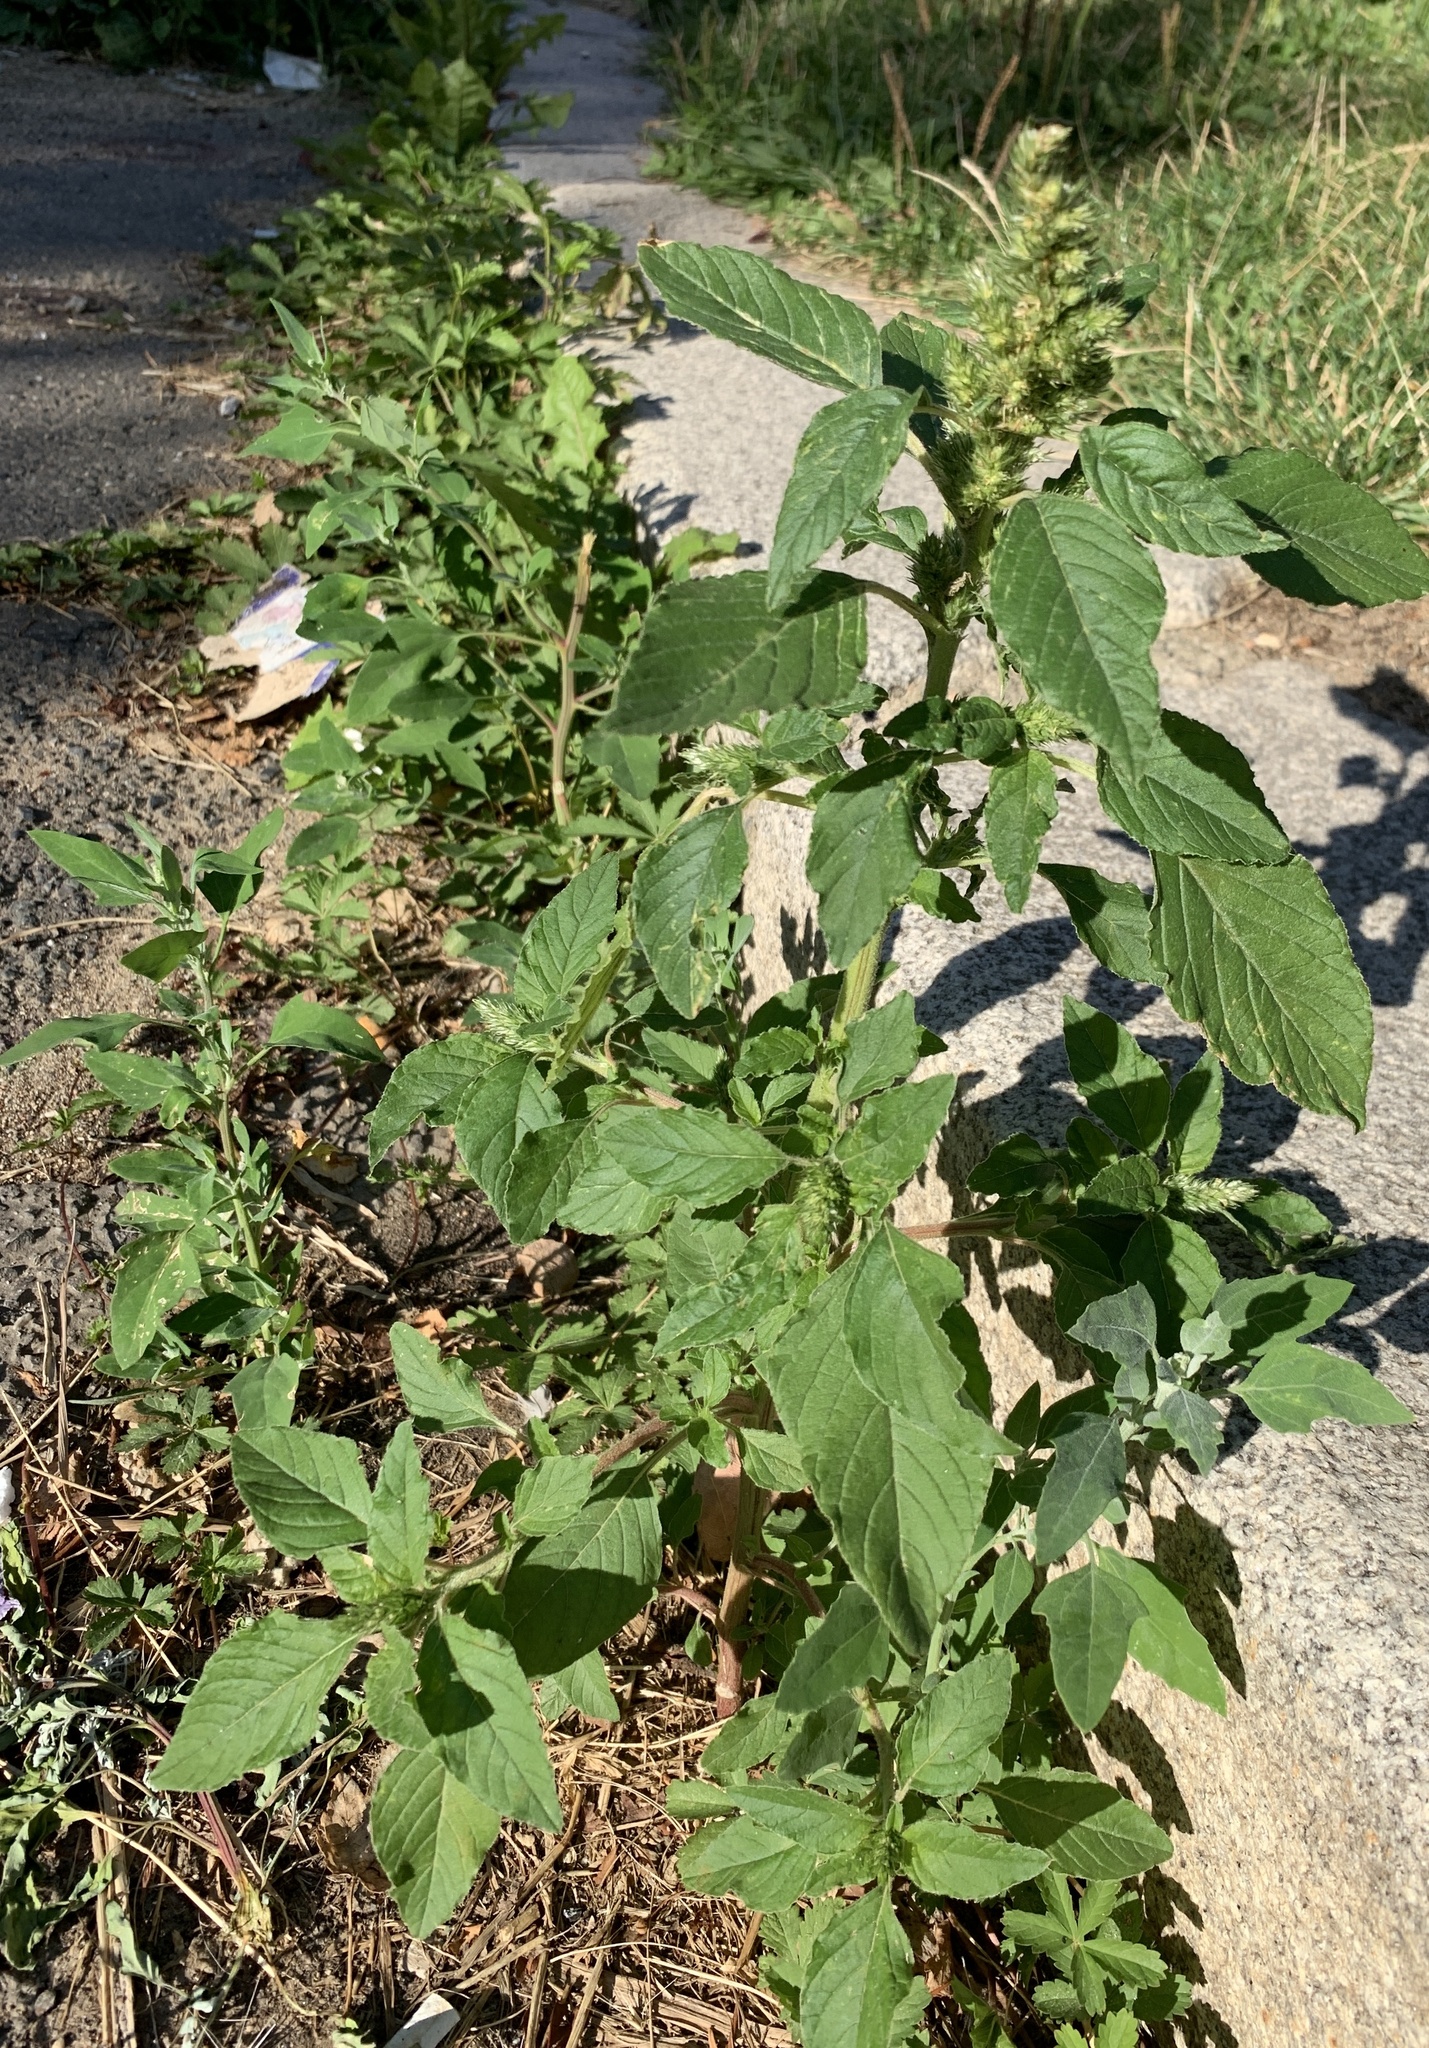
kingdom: Plantae
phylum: Tracheophyta
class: Magnoliopsida
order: Caryophyllales
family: Amaranthaceae
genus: Amaranthus
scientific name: Amaranthus retroflexus
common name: Redroot amaranth
